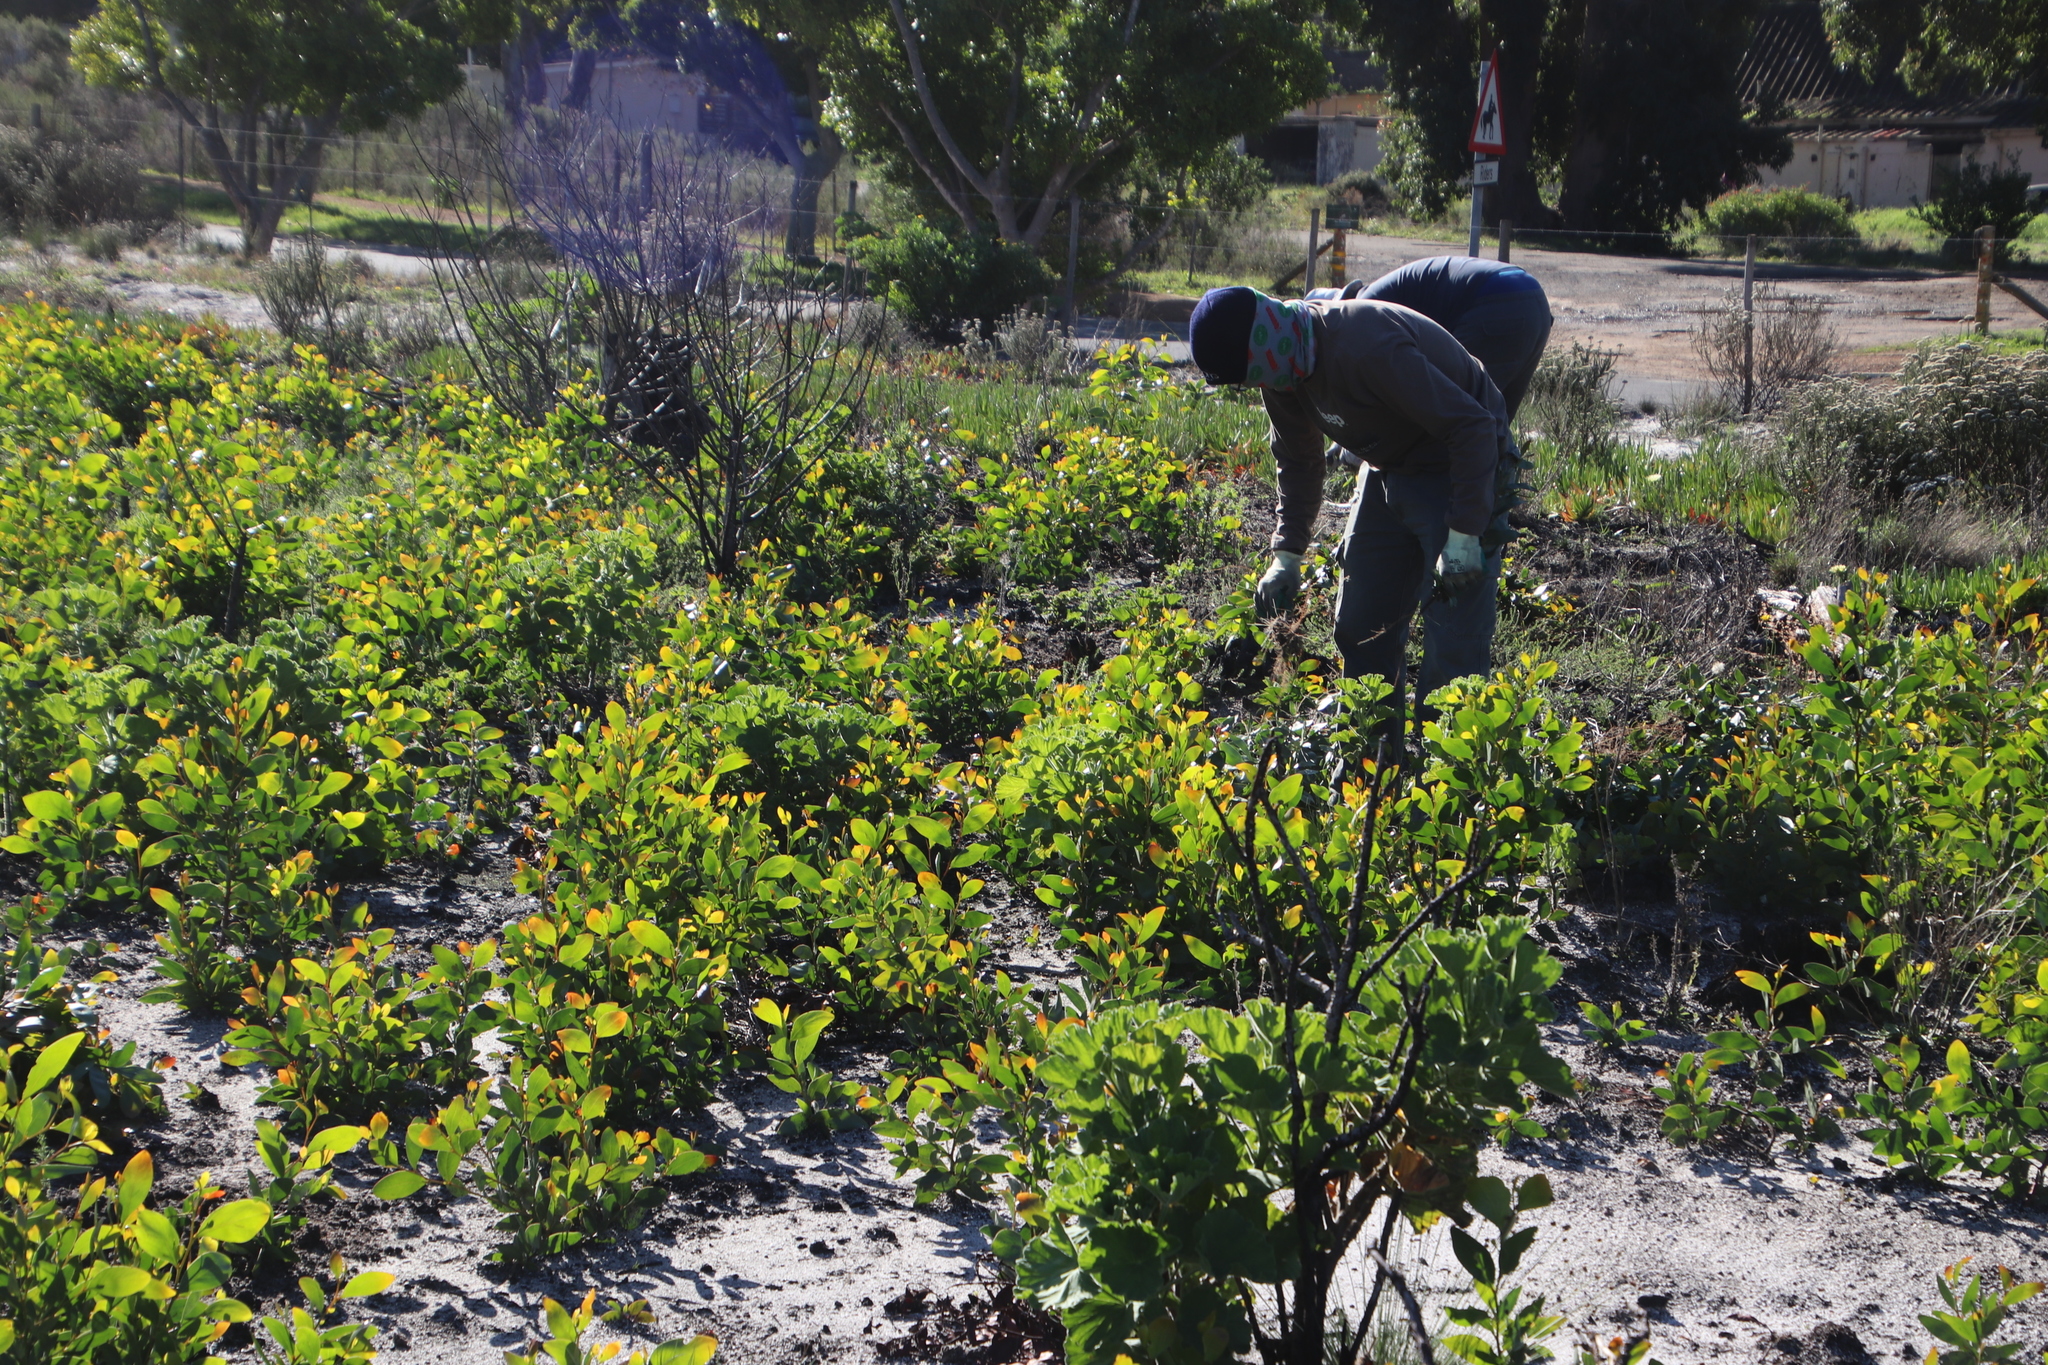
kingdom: Plantae
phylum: Tracheophyta
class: Magnoliopsida
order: Fabales
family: Fabaceae
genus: Acacia
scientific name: Acacia pycnantha
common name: Golden wattle
